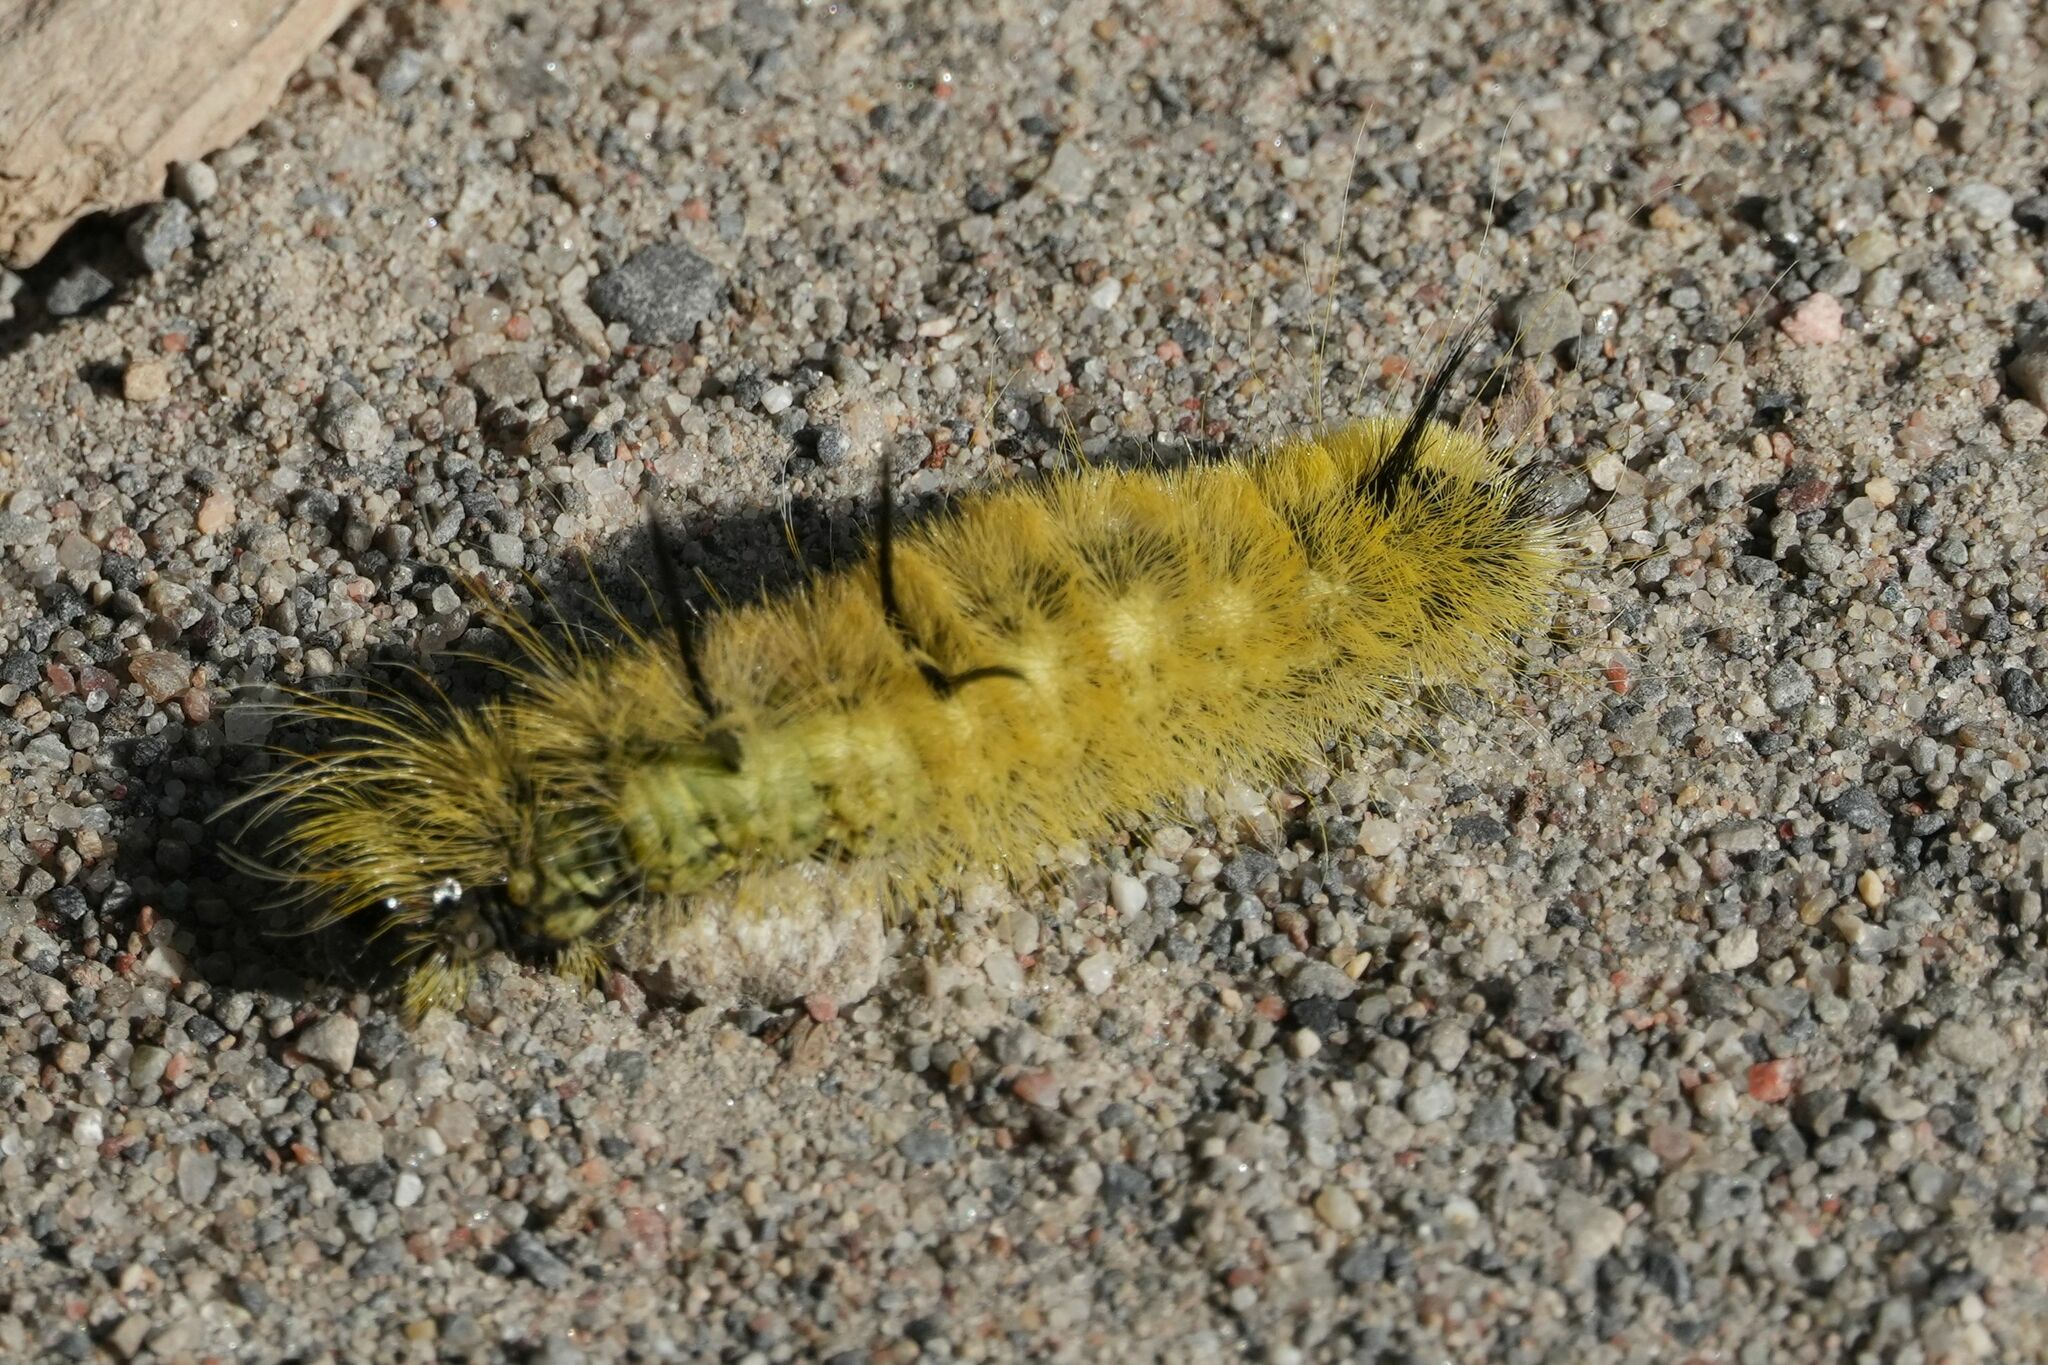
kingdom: Animalia
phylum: Arthropoda
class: Insecta
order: Lepidoptera
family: Noctuidae
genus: Acronicta
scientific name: Acronicta americana
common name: American dagger
